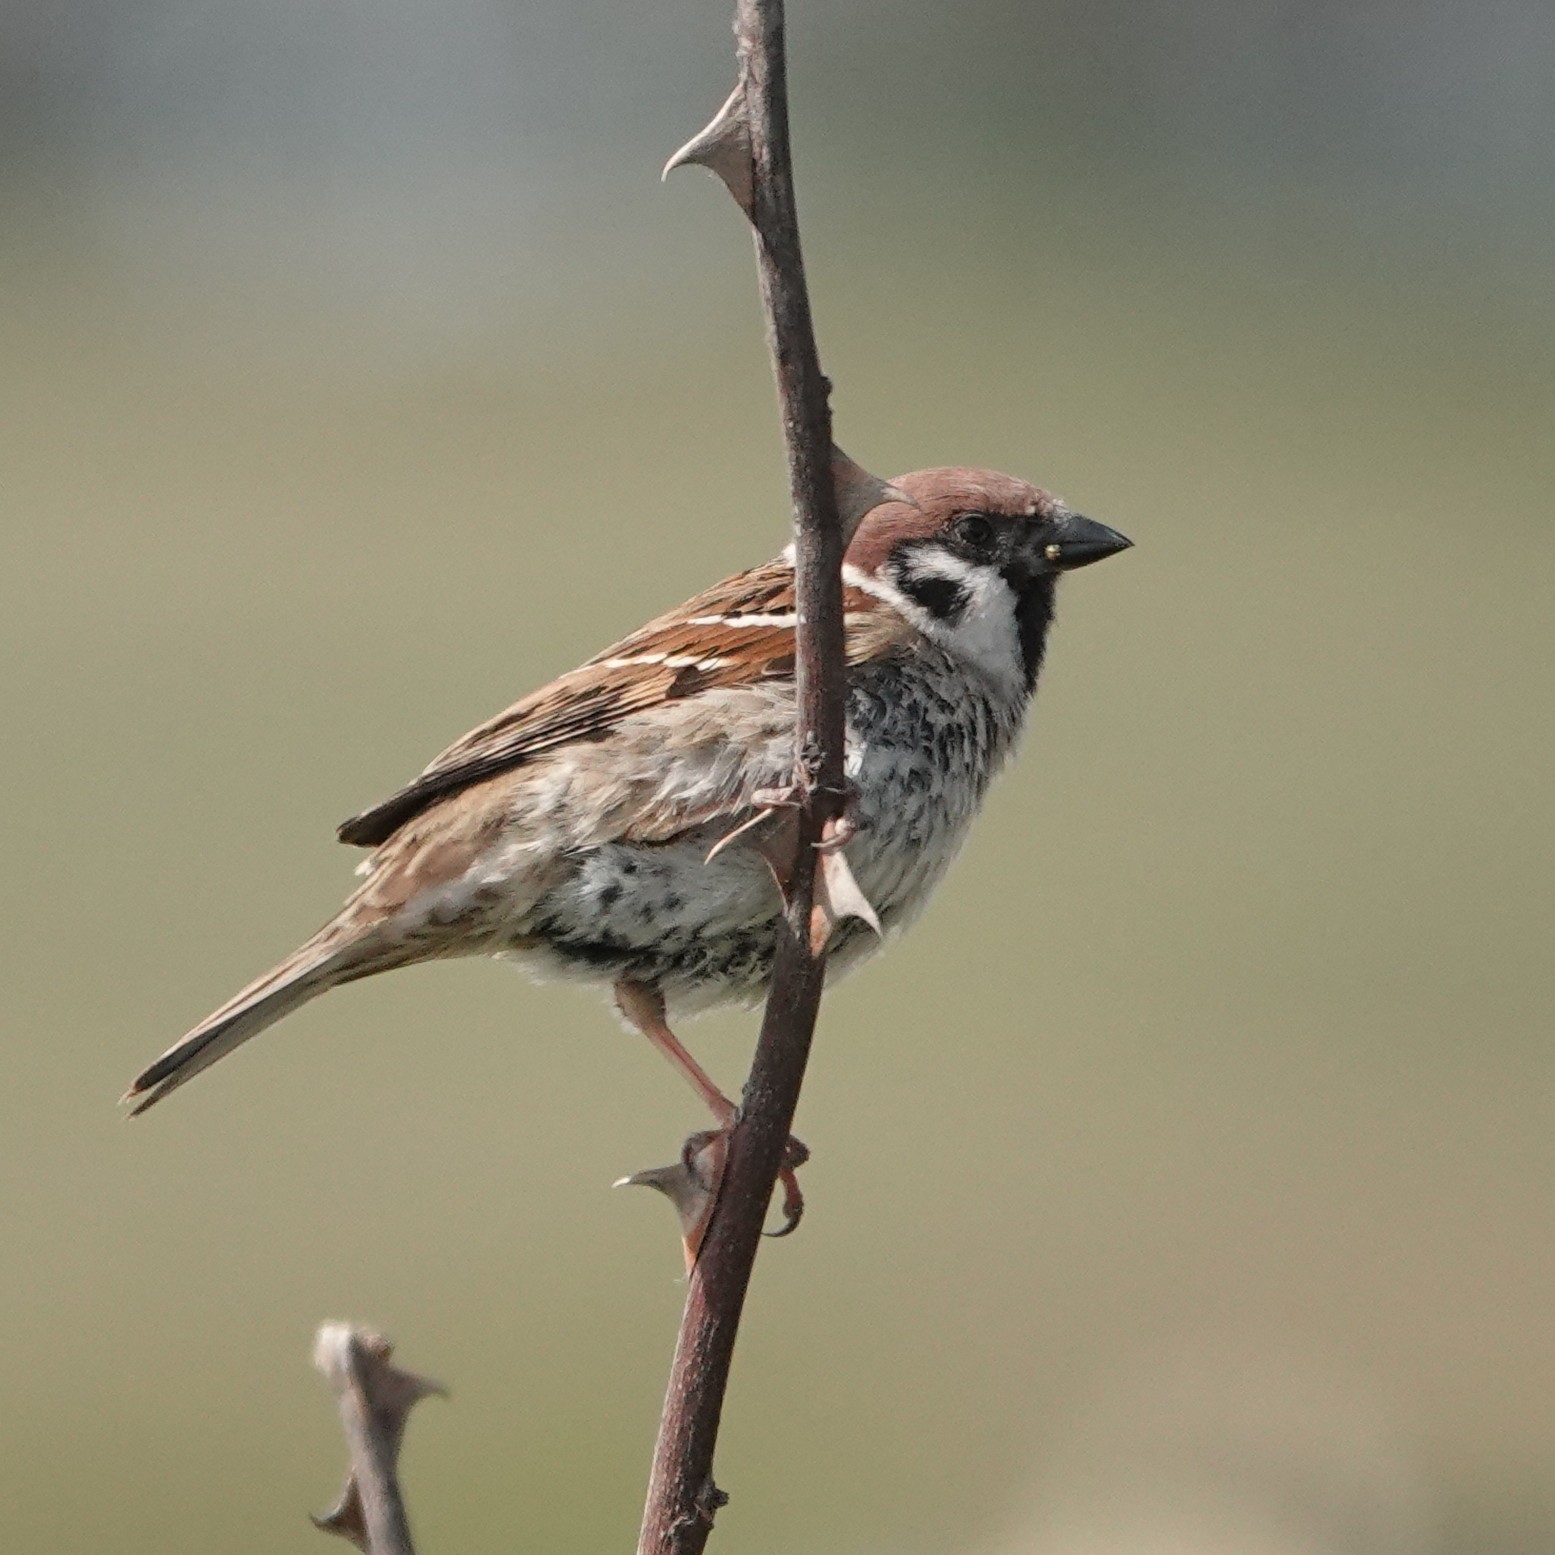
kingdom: Animalia
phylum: Chordata
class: Aves
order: Passeriformes
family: Passeridae
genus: Passer
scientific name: Passer montanus
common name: Eurasian tree sparrow
